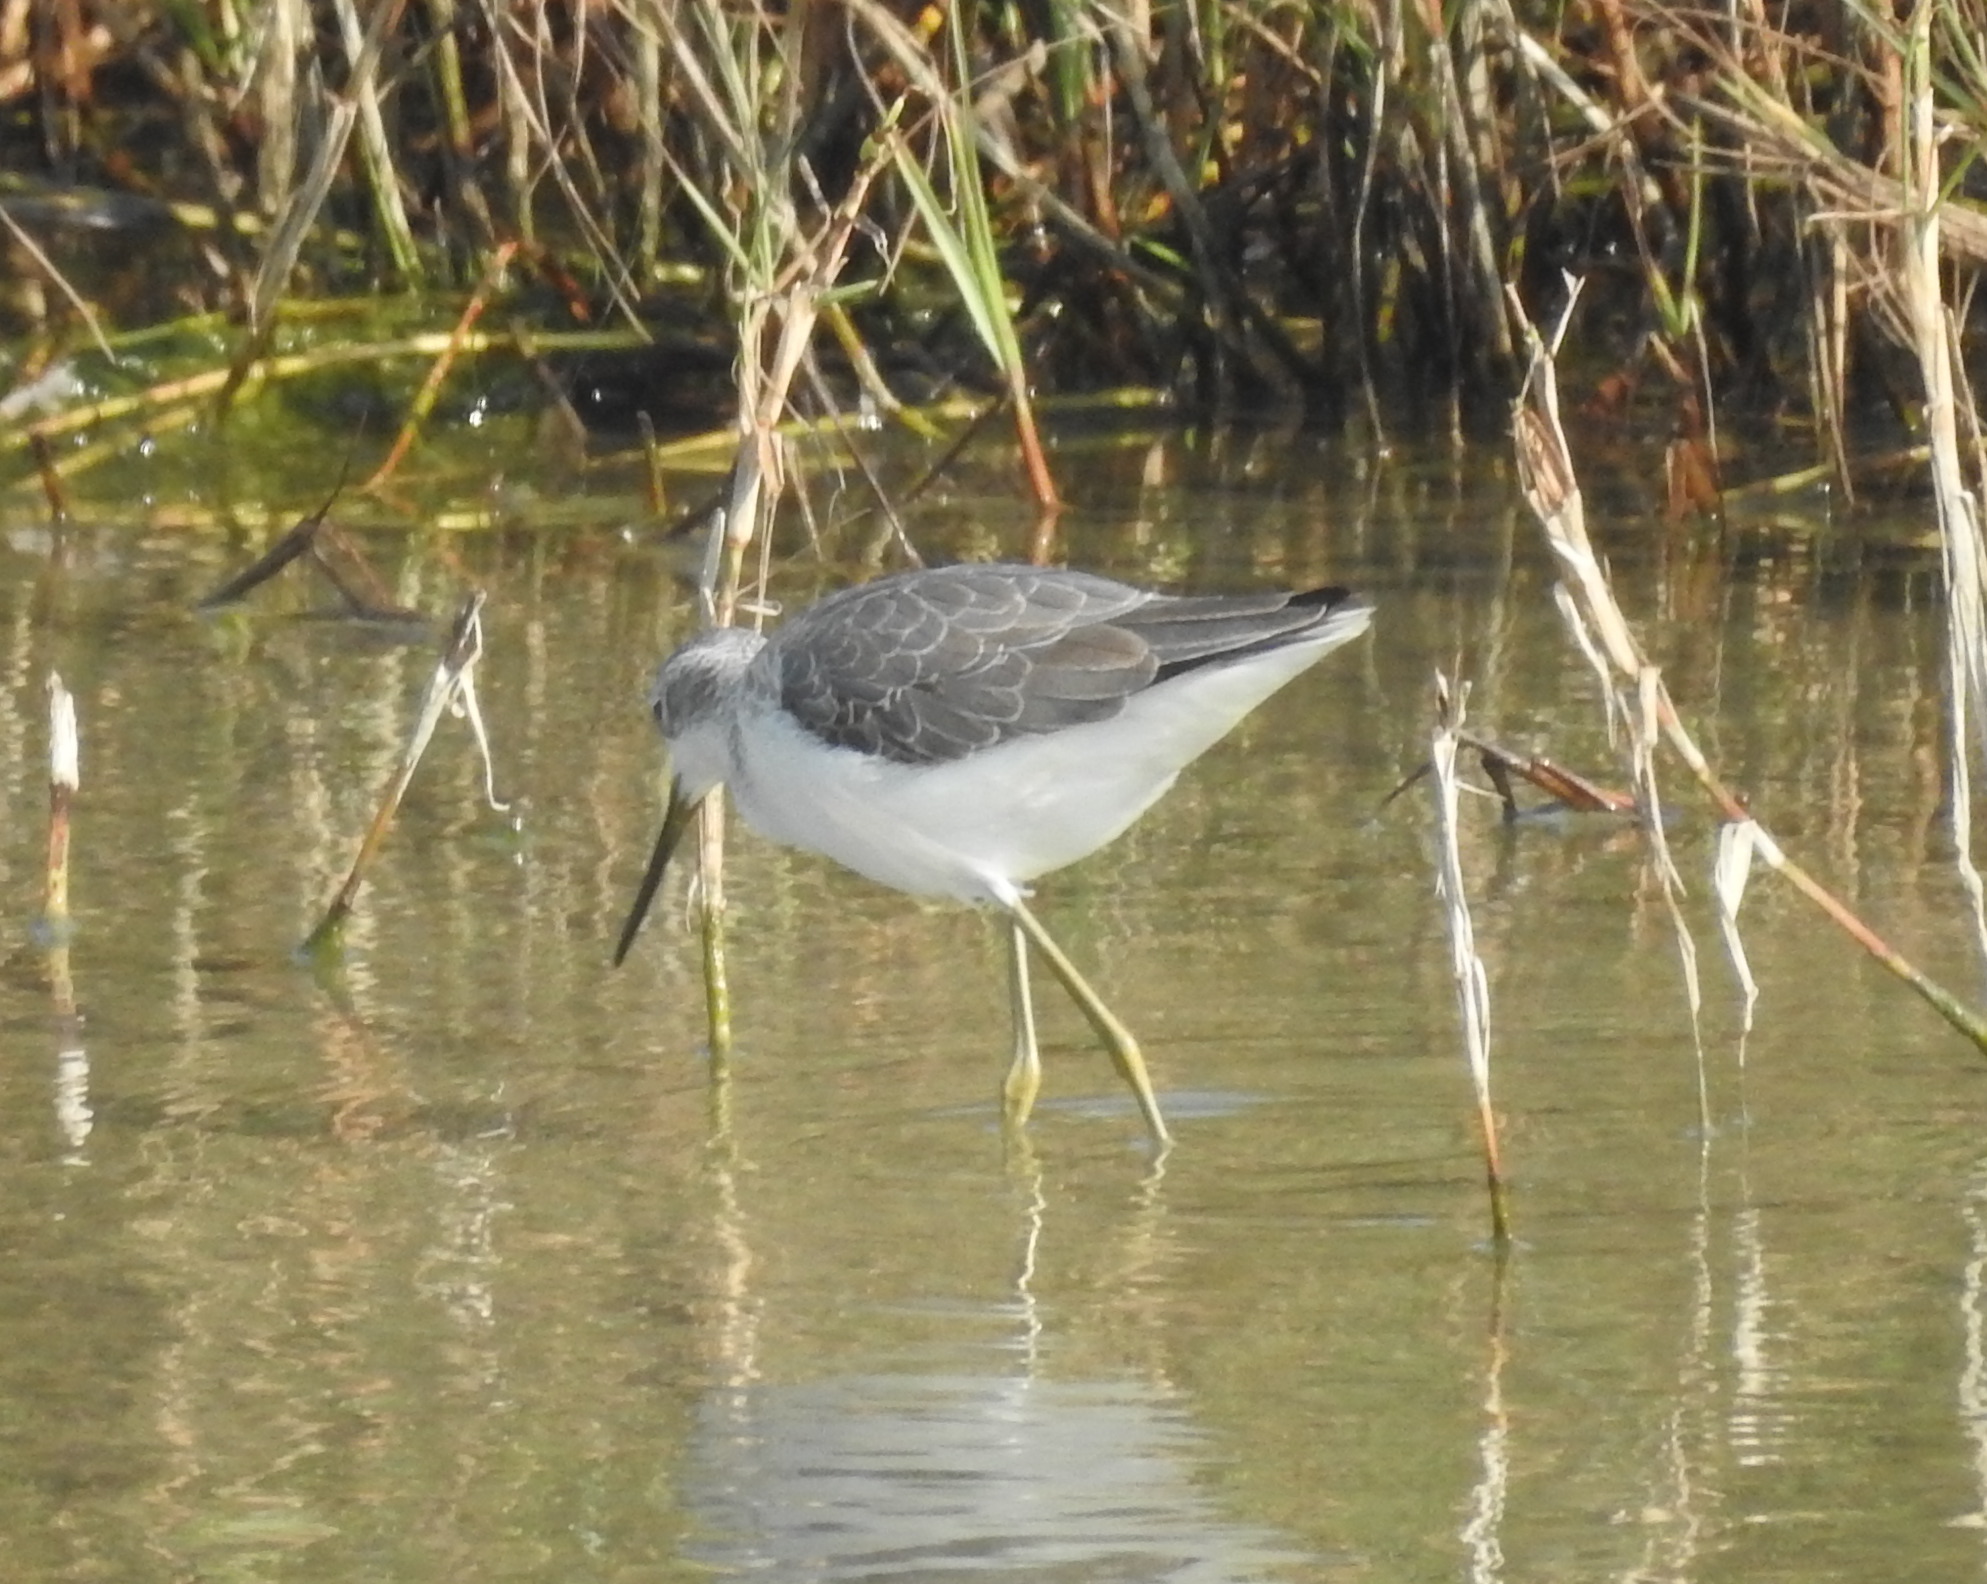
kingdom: Animalia
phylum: Chordata
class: Aves
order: Charadriiformes
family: Scolopacidae
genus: Tringa
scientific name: Tringa nebularia
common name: Common greenshank
